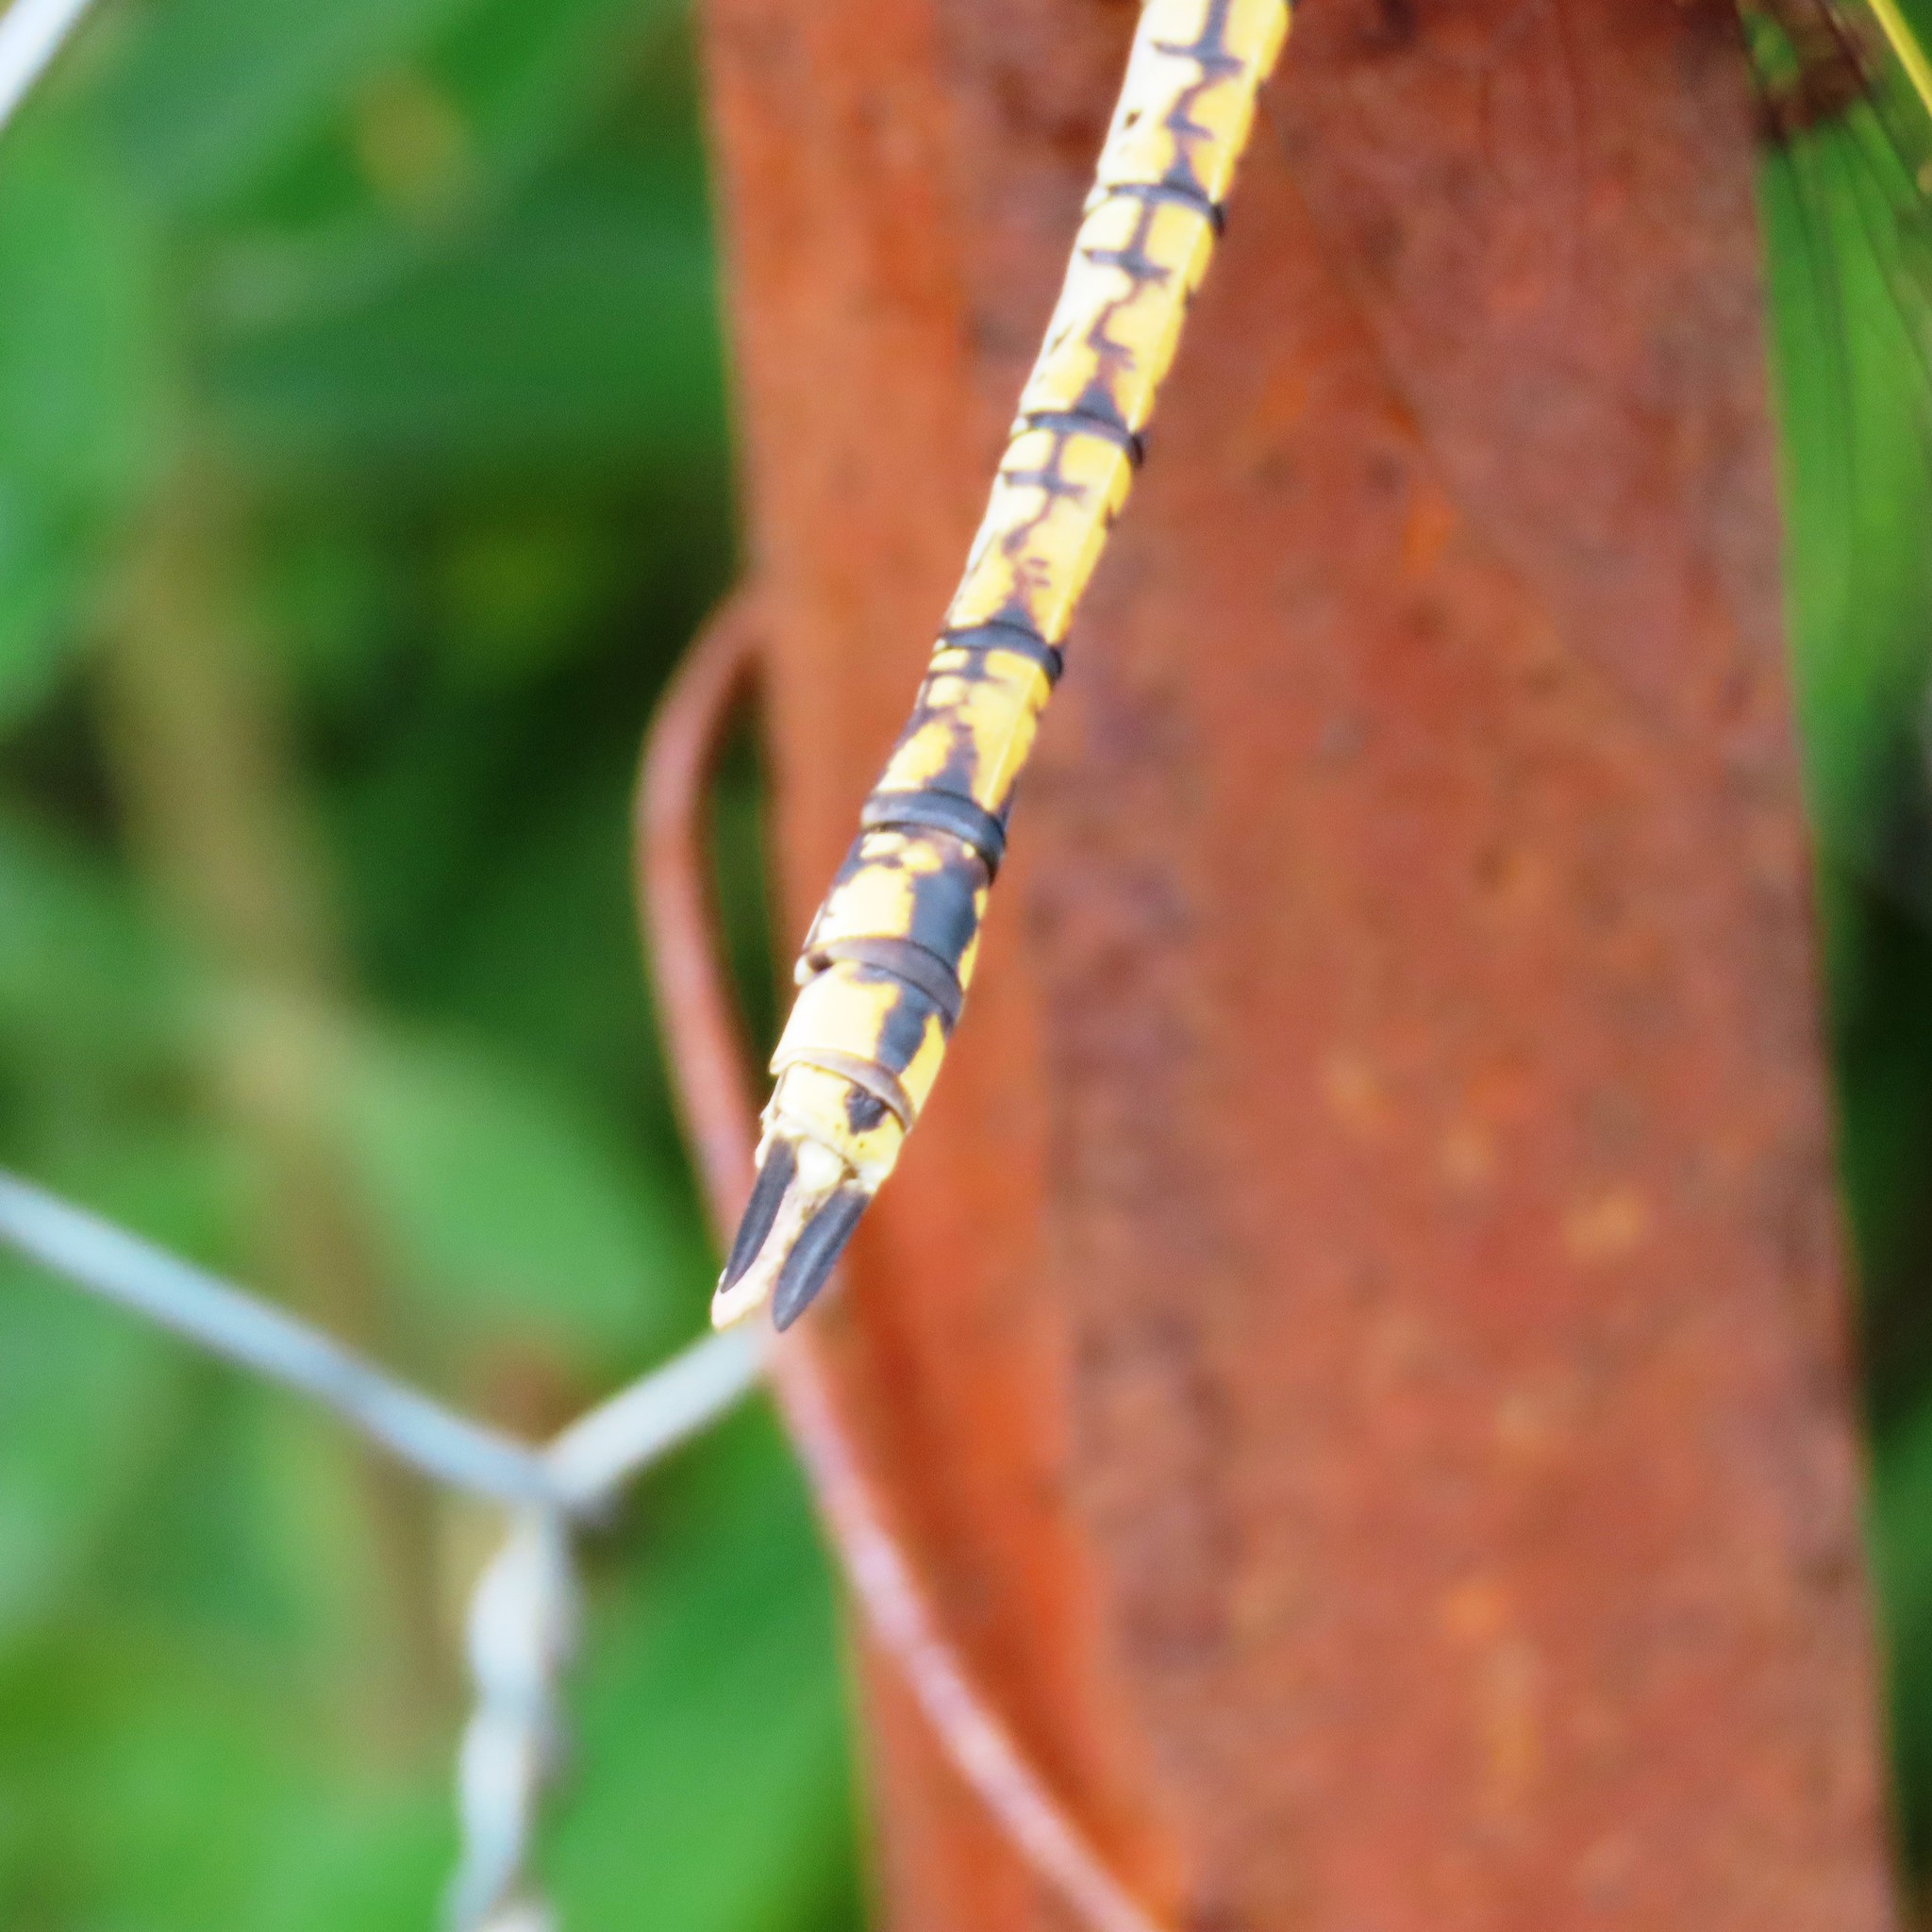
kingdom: Animalia
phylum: Arthropoda
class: Insecta
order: Odonata
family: Aeshnidae
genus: Anax
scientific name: Anax papuensis
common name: Australian emperor
